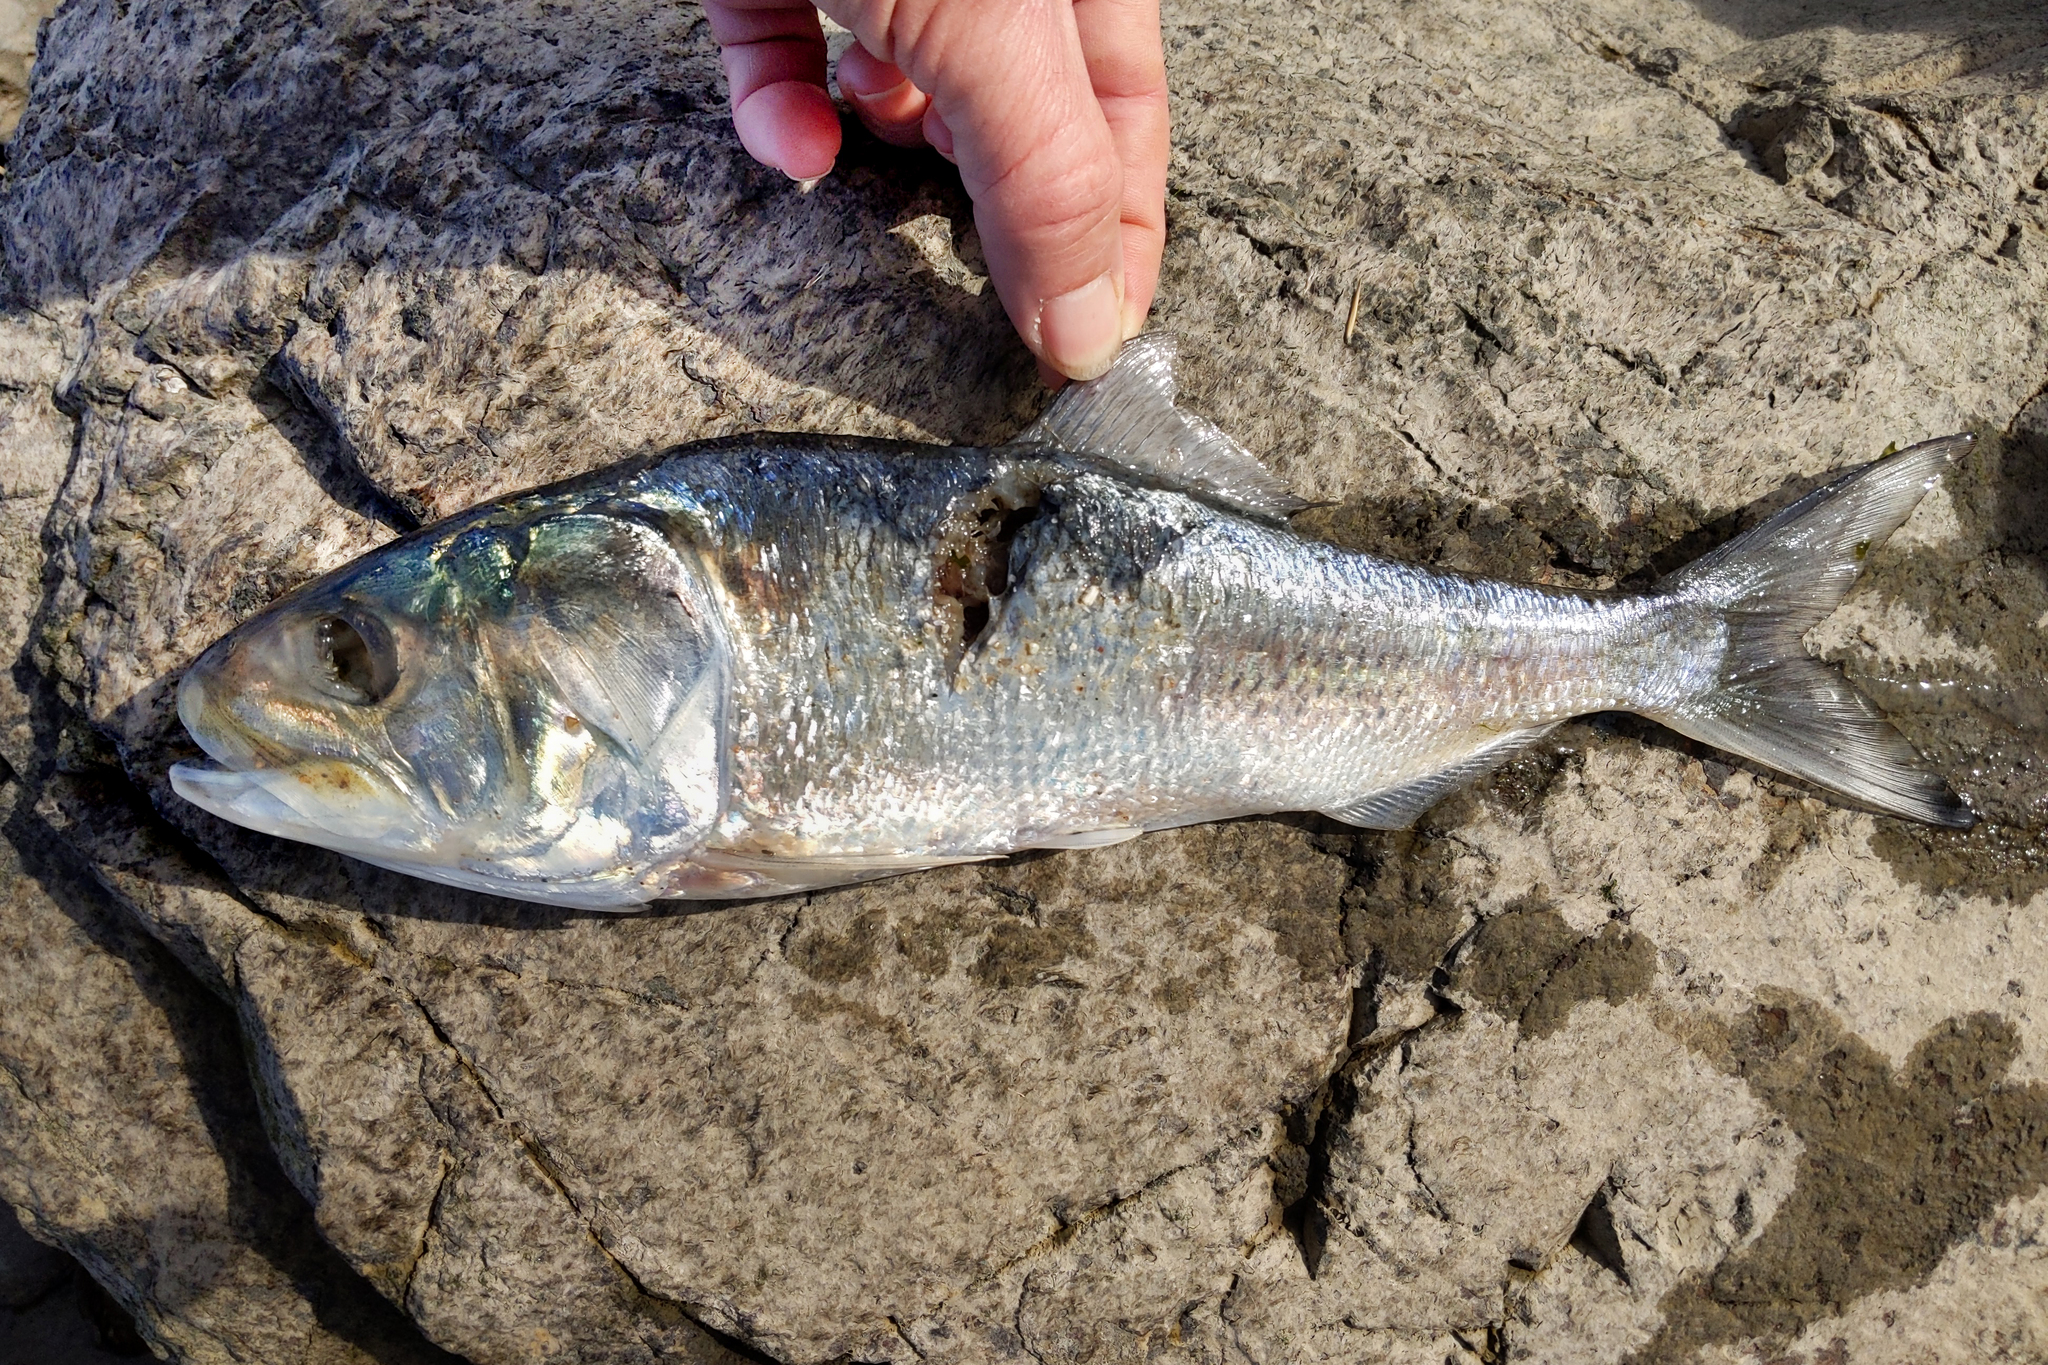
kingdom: Animalia
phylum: Chordata
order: Clupeiformes
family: Clupeidae
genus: Brevoortia
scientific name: Brevoortia tyrannus
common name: Atlantic menhaden
